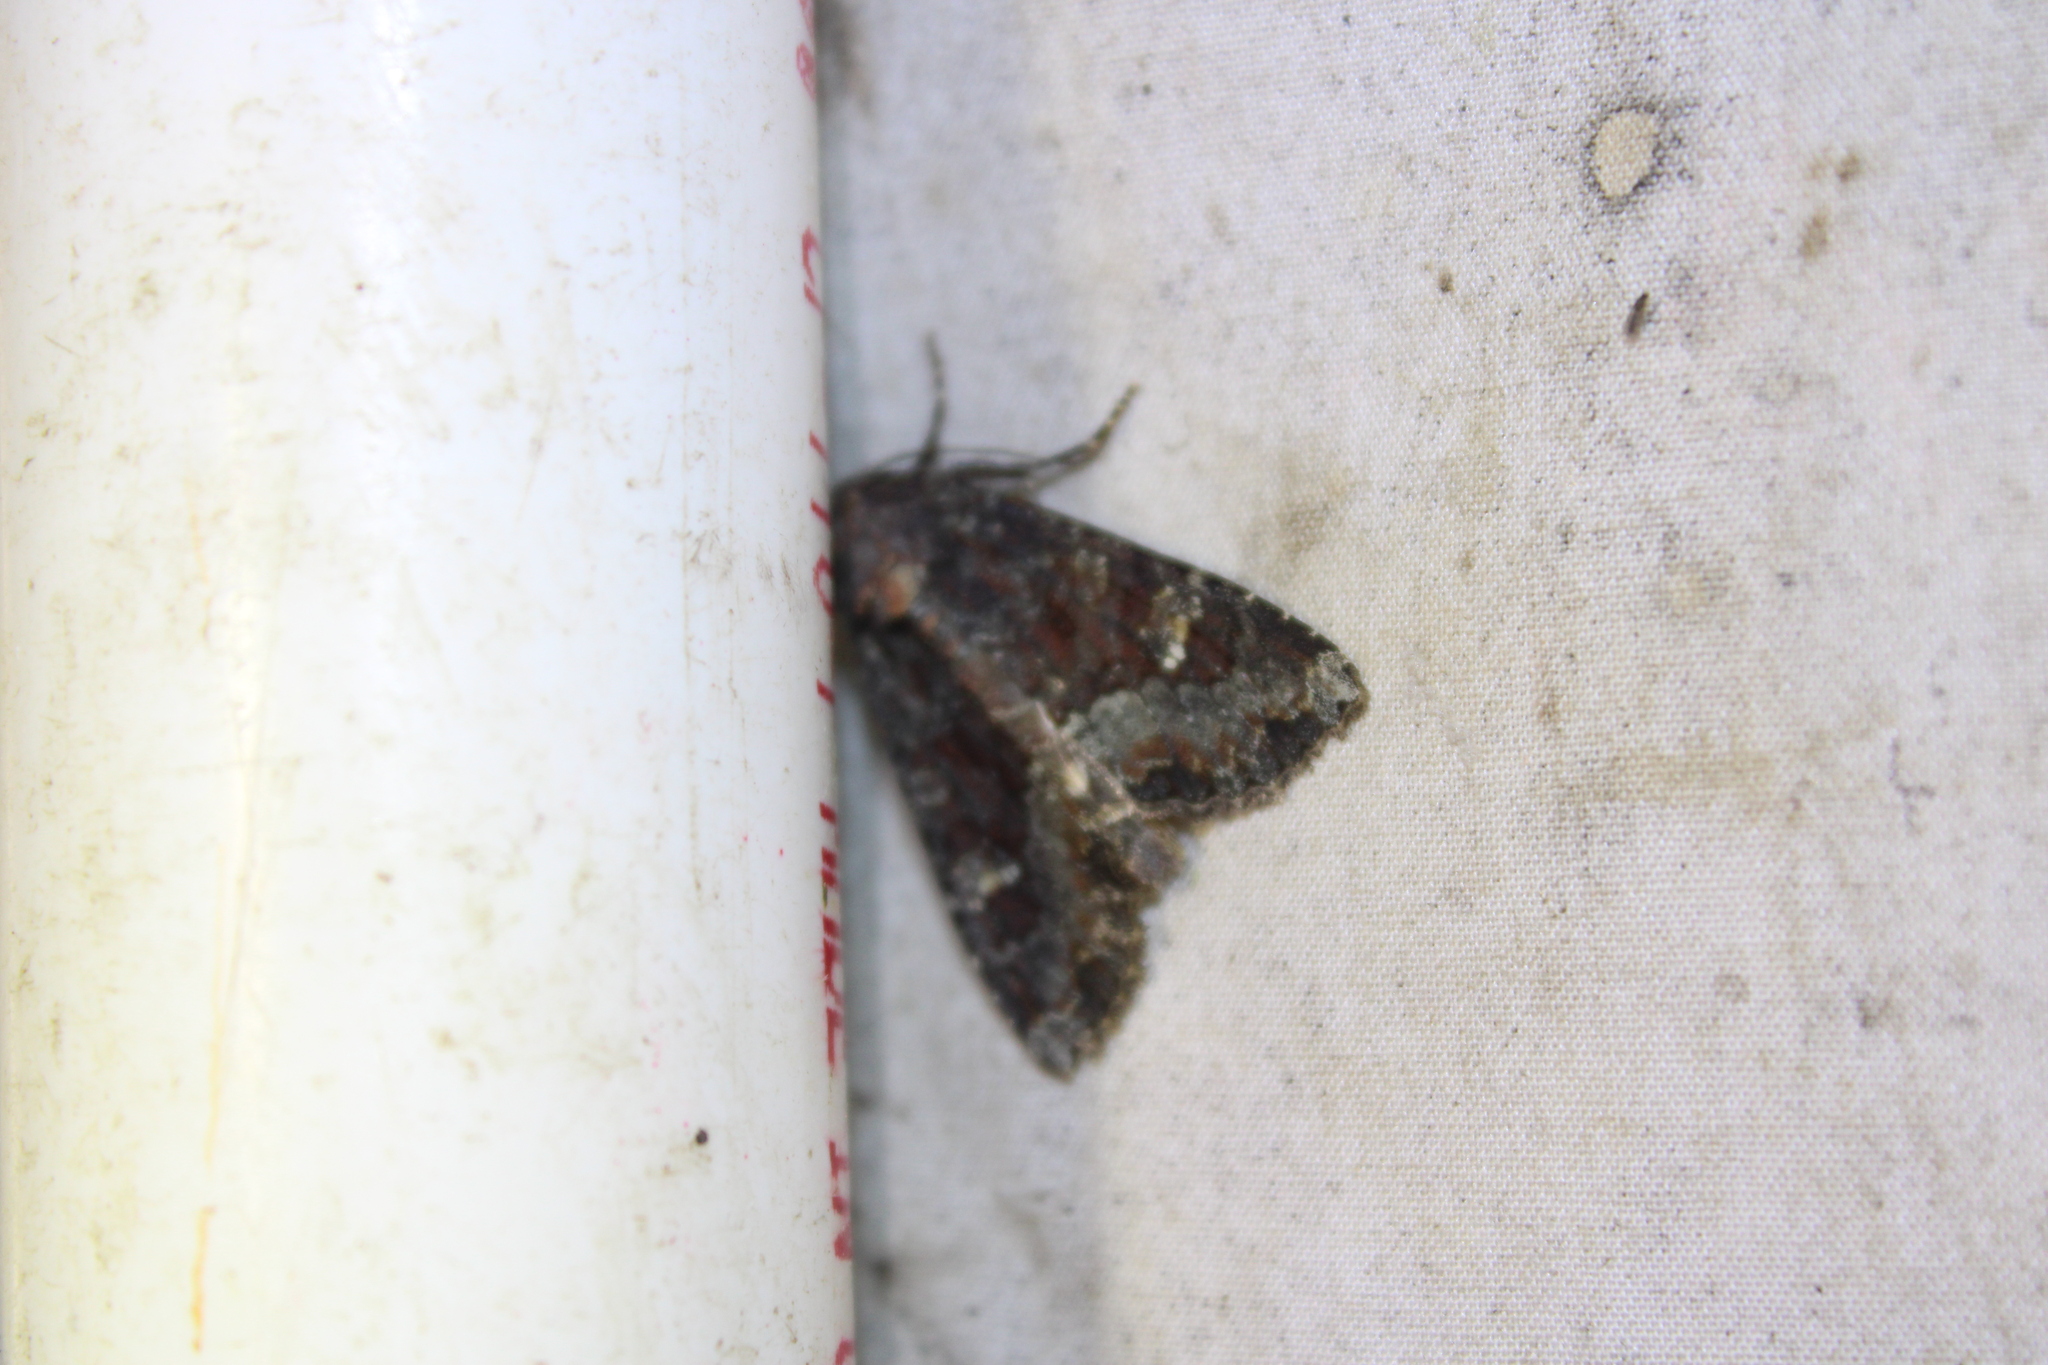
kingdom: Animalia
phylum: Arthropoda
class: Insecta
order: Lepidoptera
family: Noctuidae
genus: Apamea
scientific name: Apamea amputatrix
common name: Yellow-headed cutworm moth
